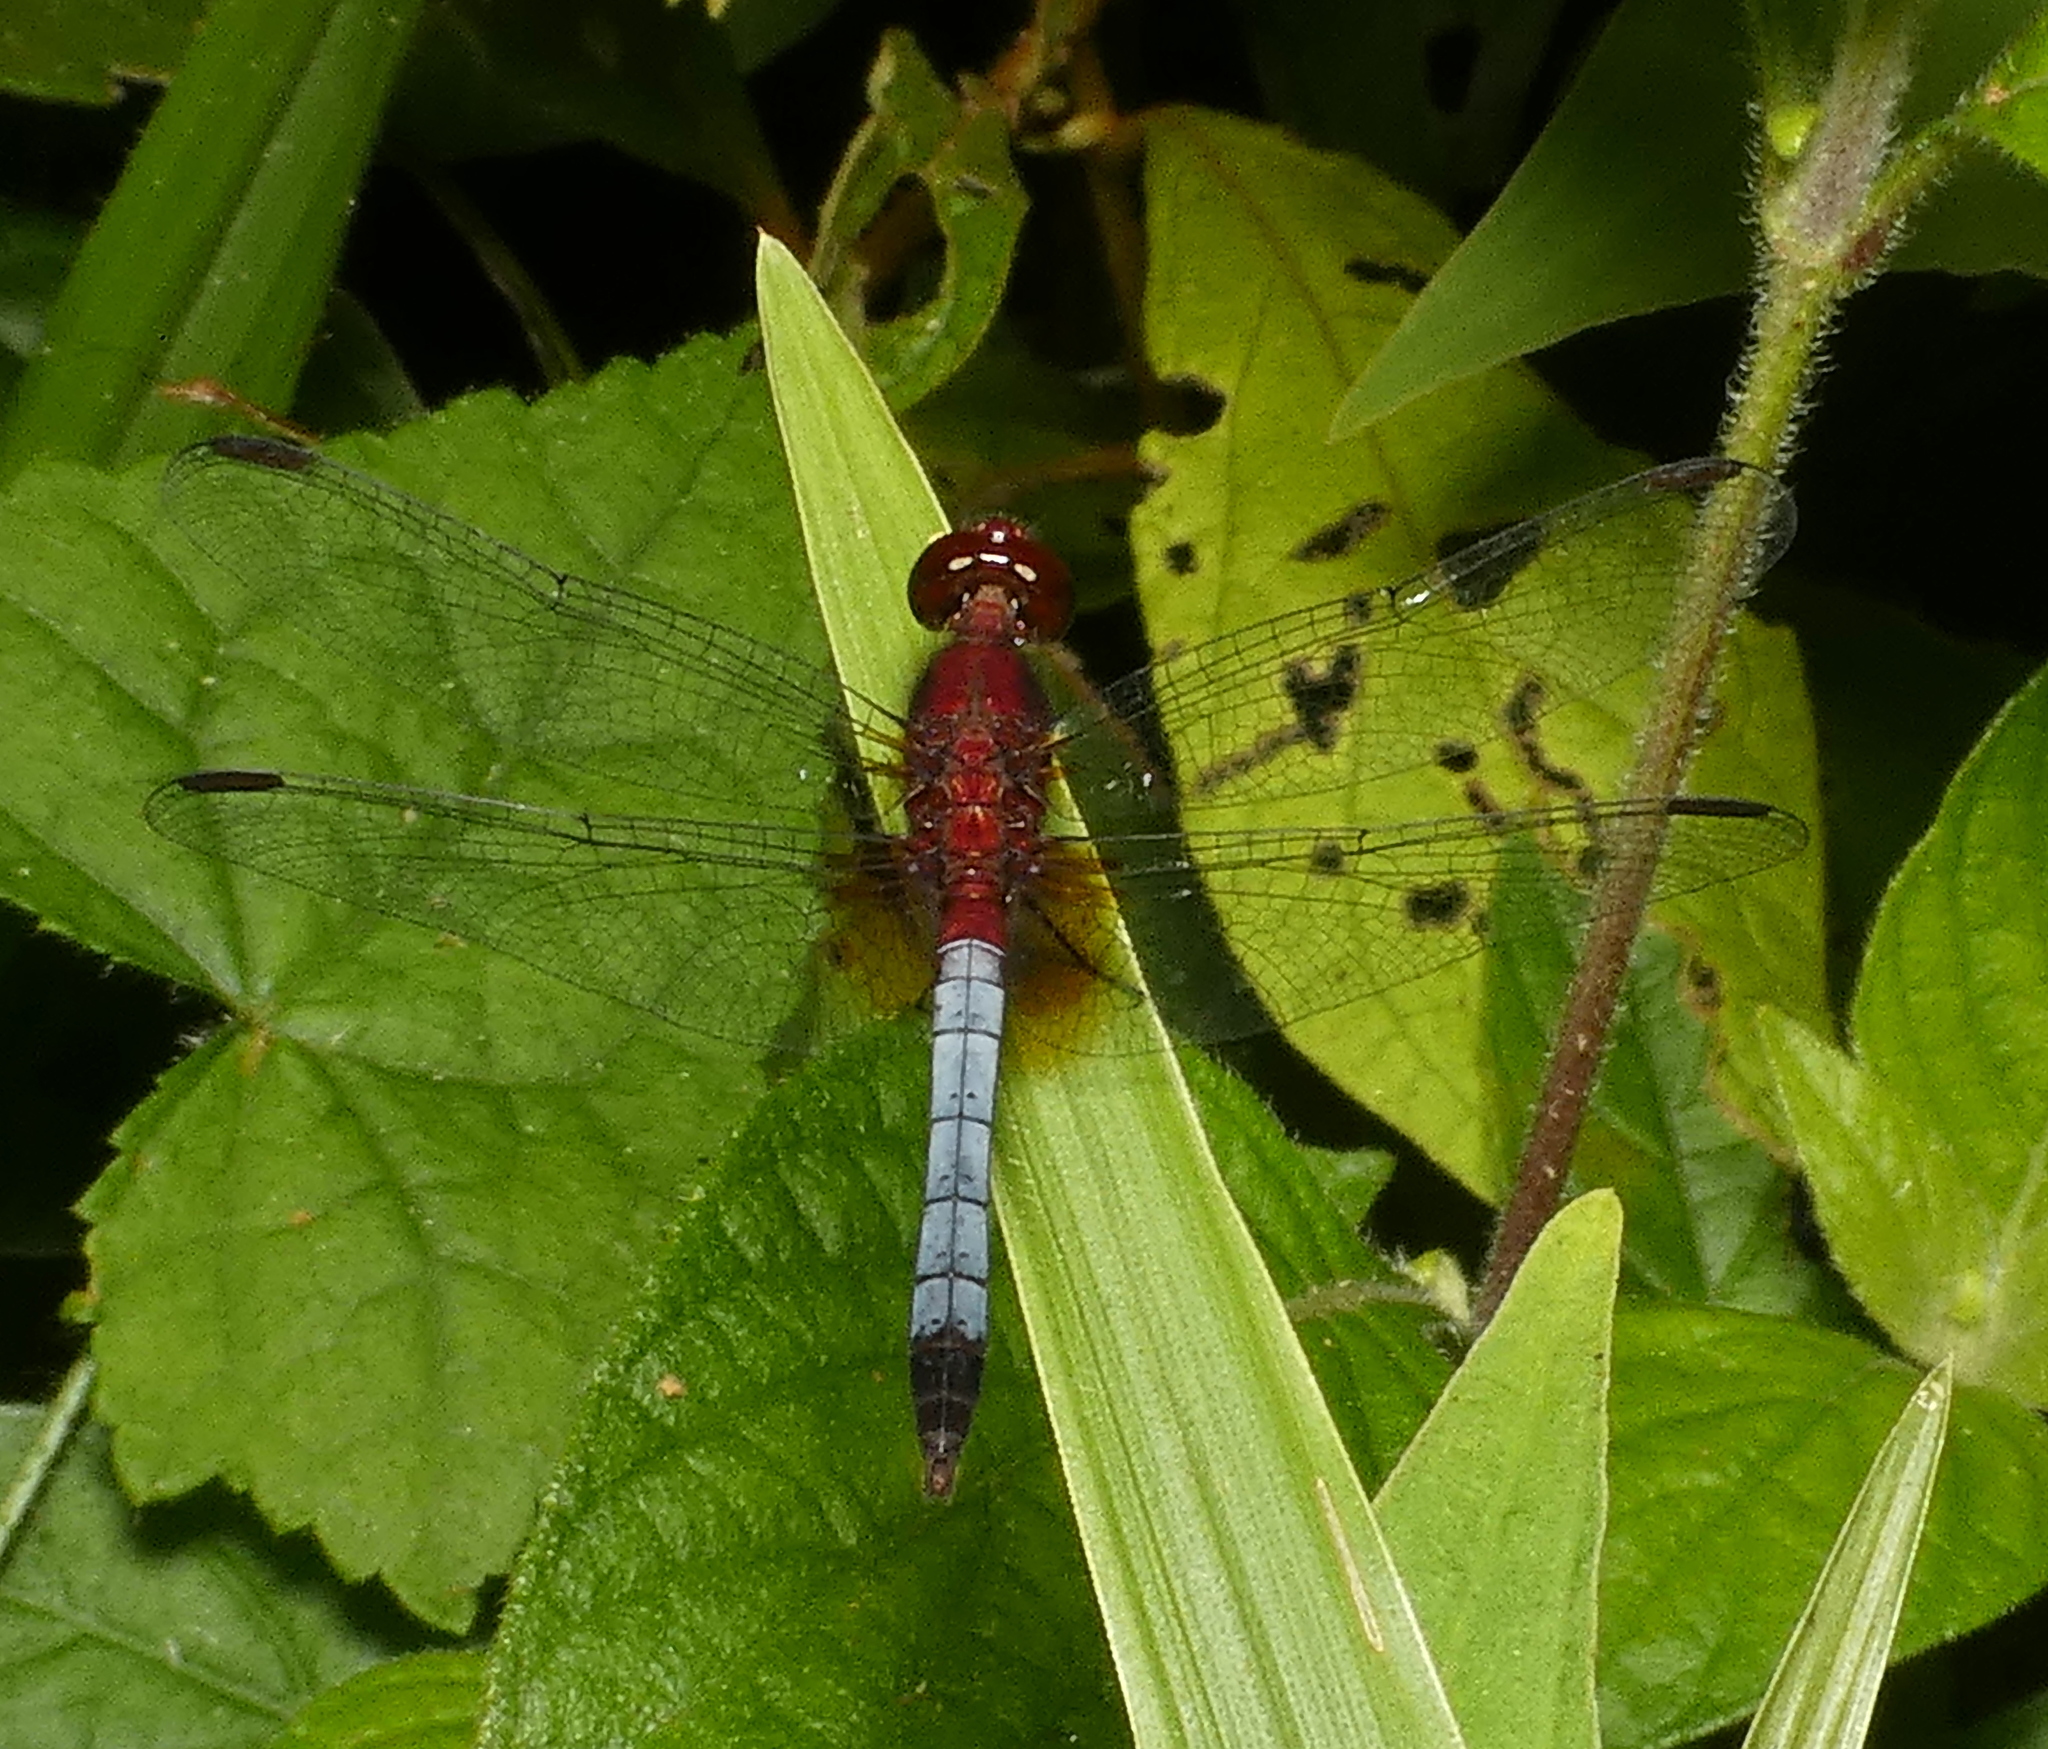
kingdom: Animalia
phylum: Arthropoda
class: Insecta
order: Odonata
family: Libellulidae
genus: Erythrodiplax
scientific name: Erythrodiplax fusca
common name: Red-faced dragonlet
